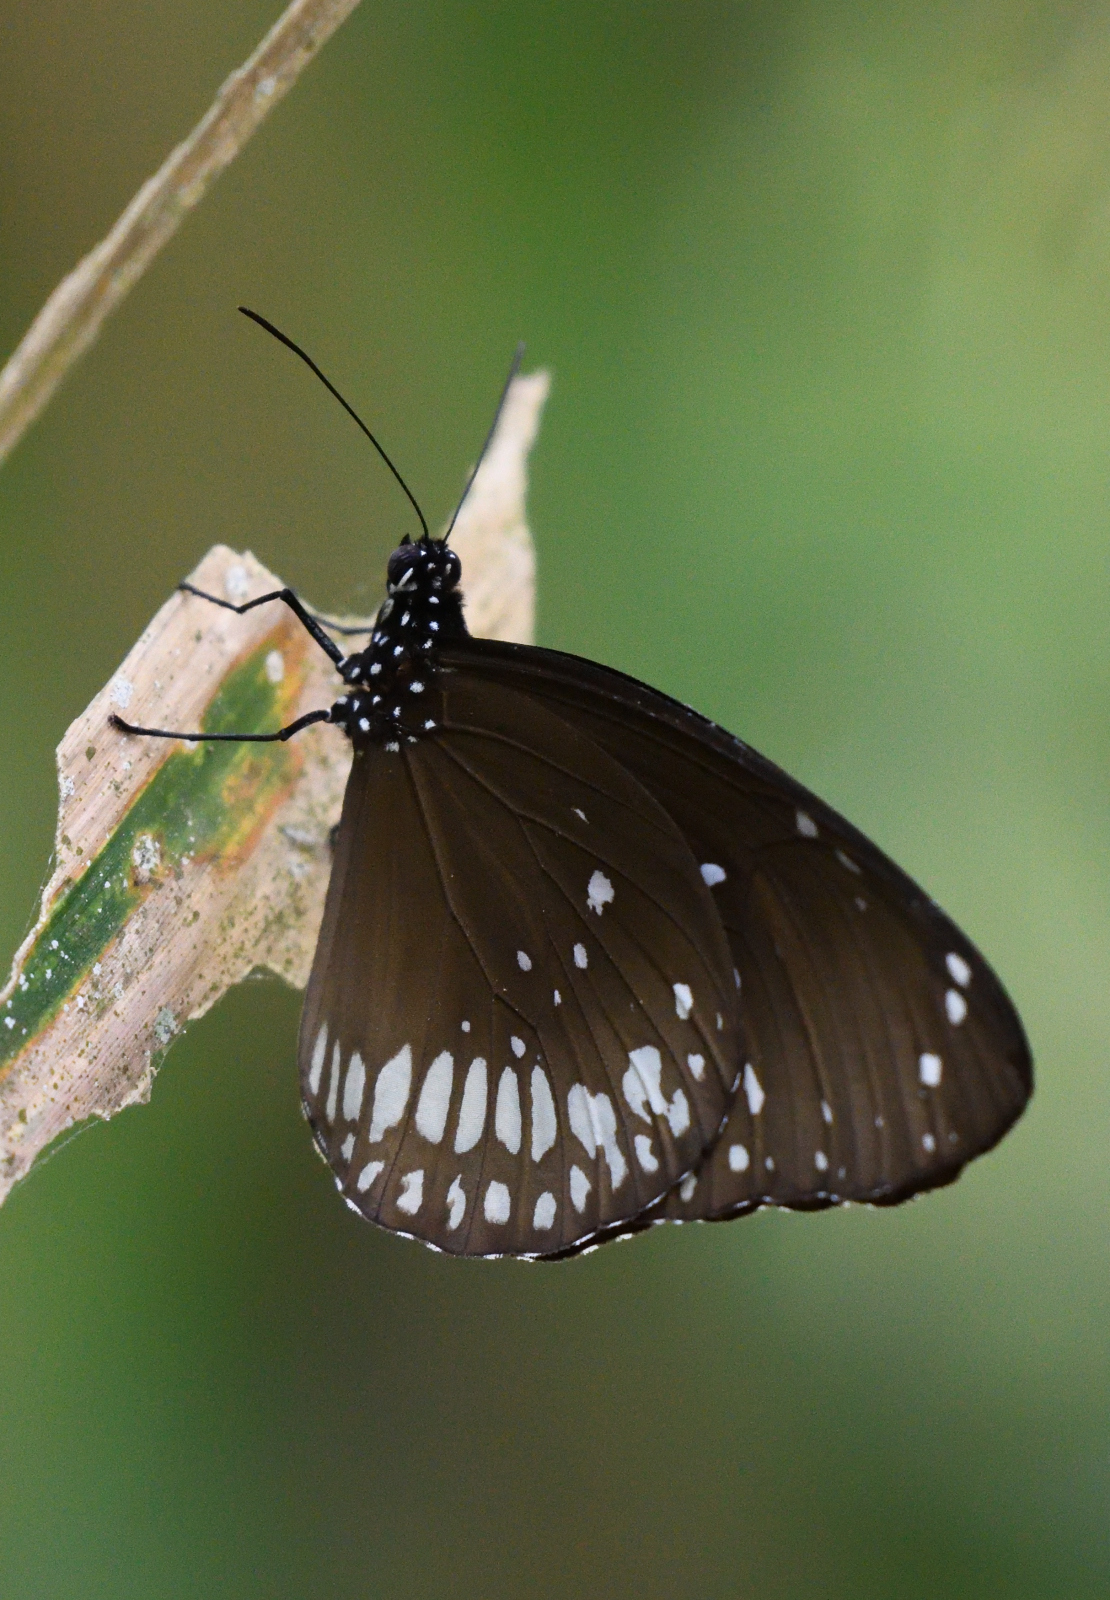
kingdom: Animalia
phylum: Arthropoda
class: Insecta
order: Lepidoptera
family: Nymphalidae
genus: Euploea
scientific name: Euploea core
